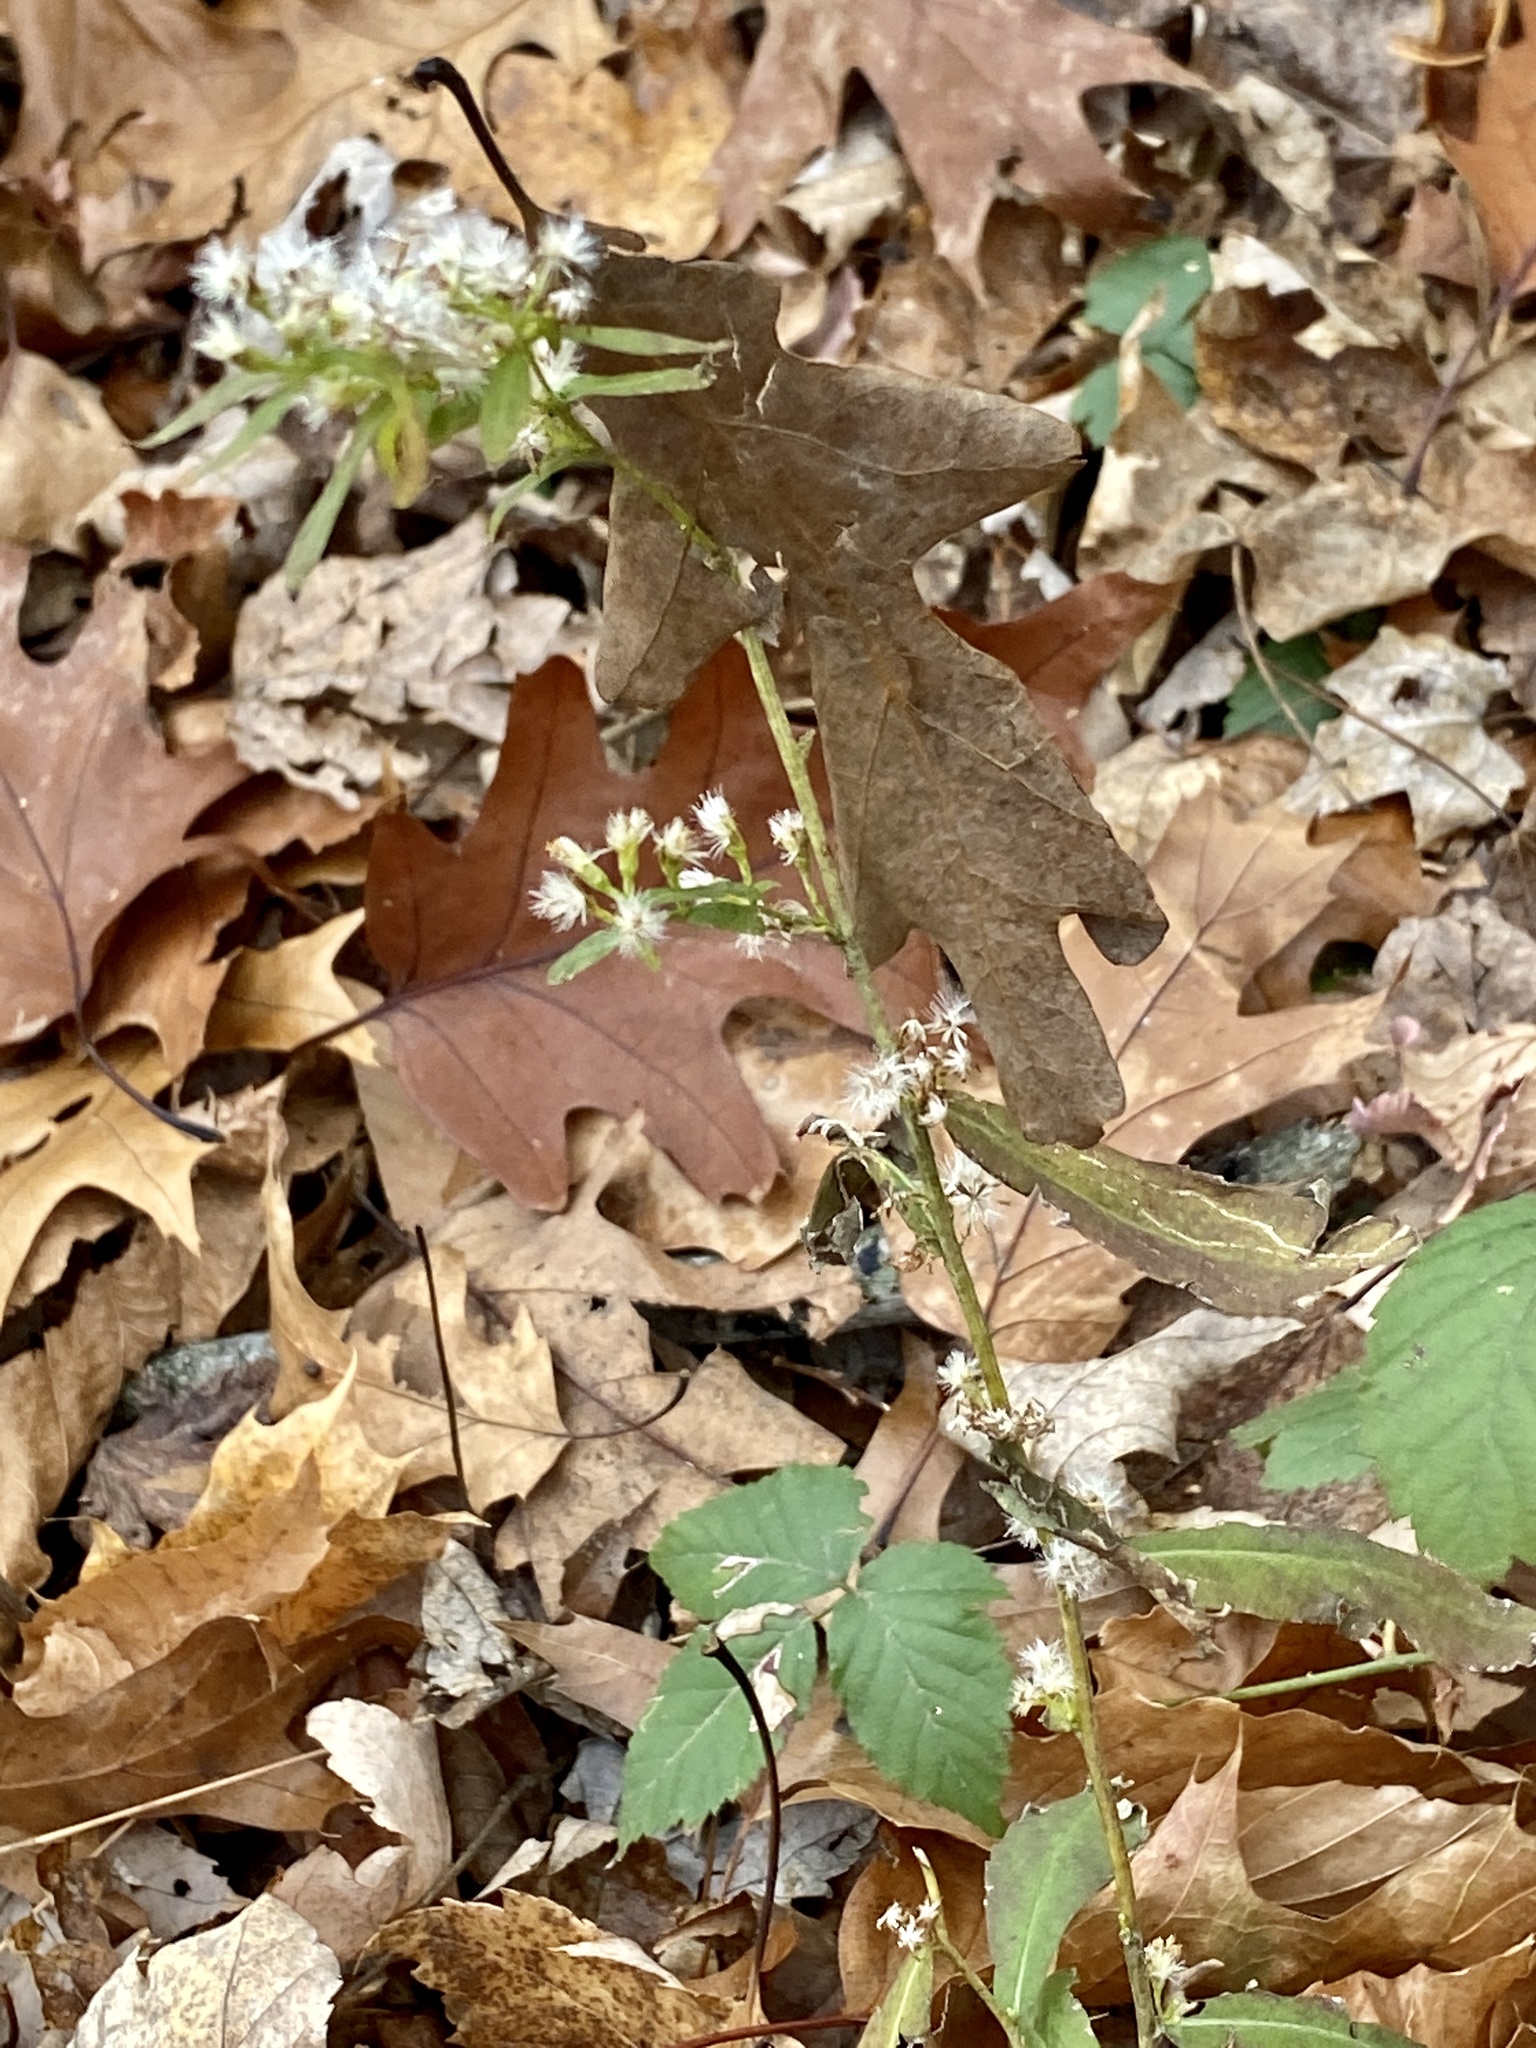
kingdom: Plantae
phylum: Tracheophyta
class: Magnoliopsida
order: Asterales
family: Asteraceae
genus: Solidago
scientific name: Solidago caesia
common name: Woodland goldenrod
